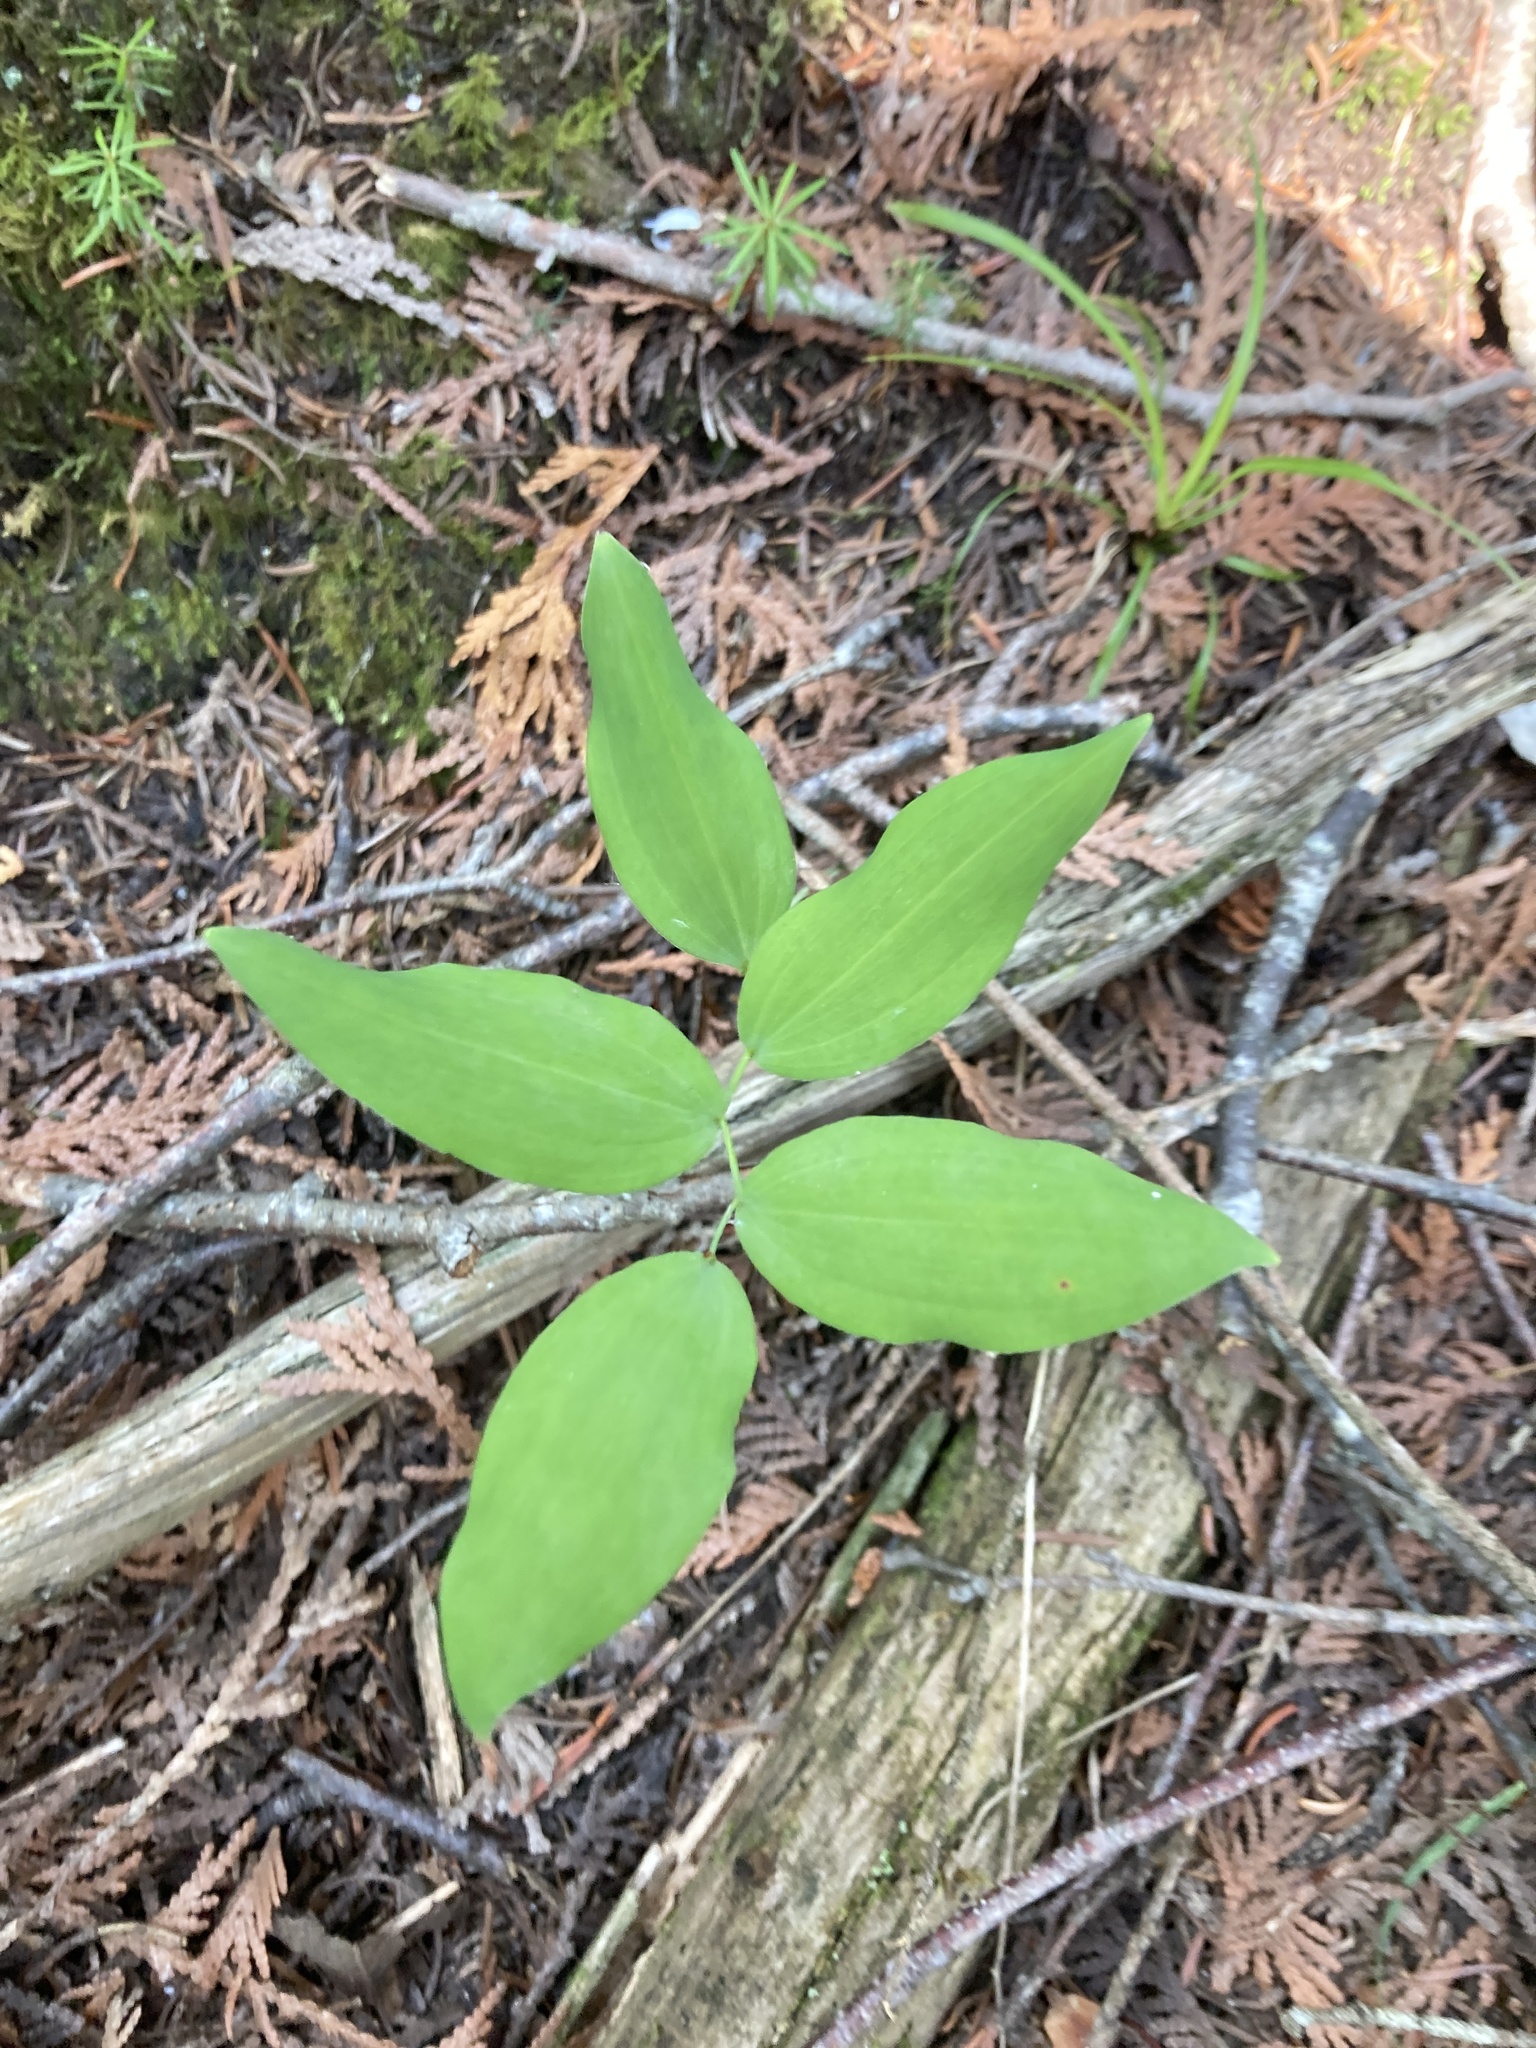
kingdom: Plantae
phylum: Tracheophyta
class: Liliopsida
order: Asparagales
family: Asparagaceae
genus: Polygonatum
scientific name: Polygonatum pubescens
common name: Downy solomon's seal
